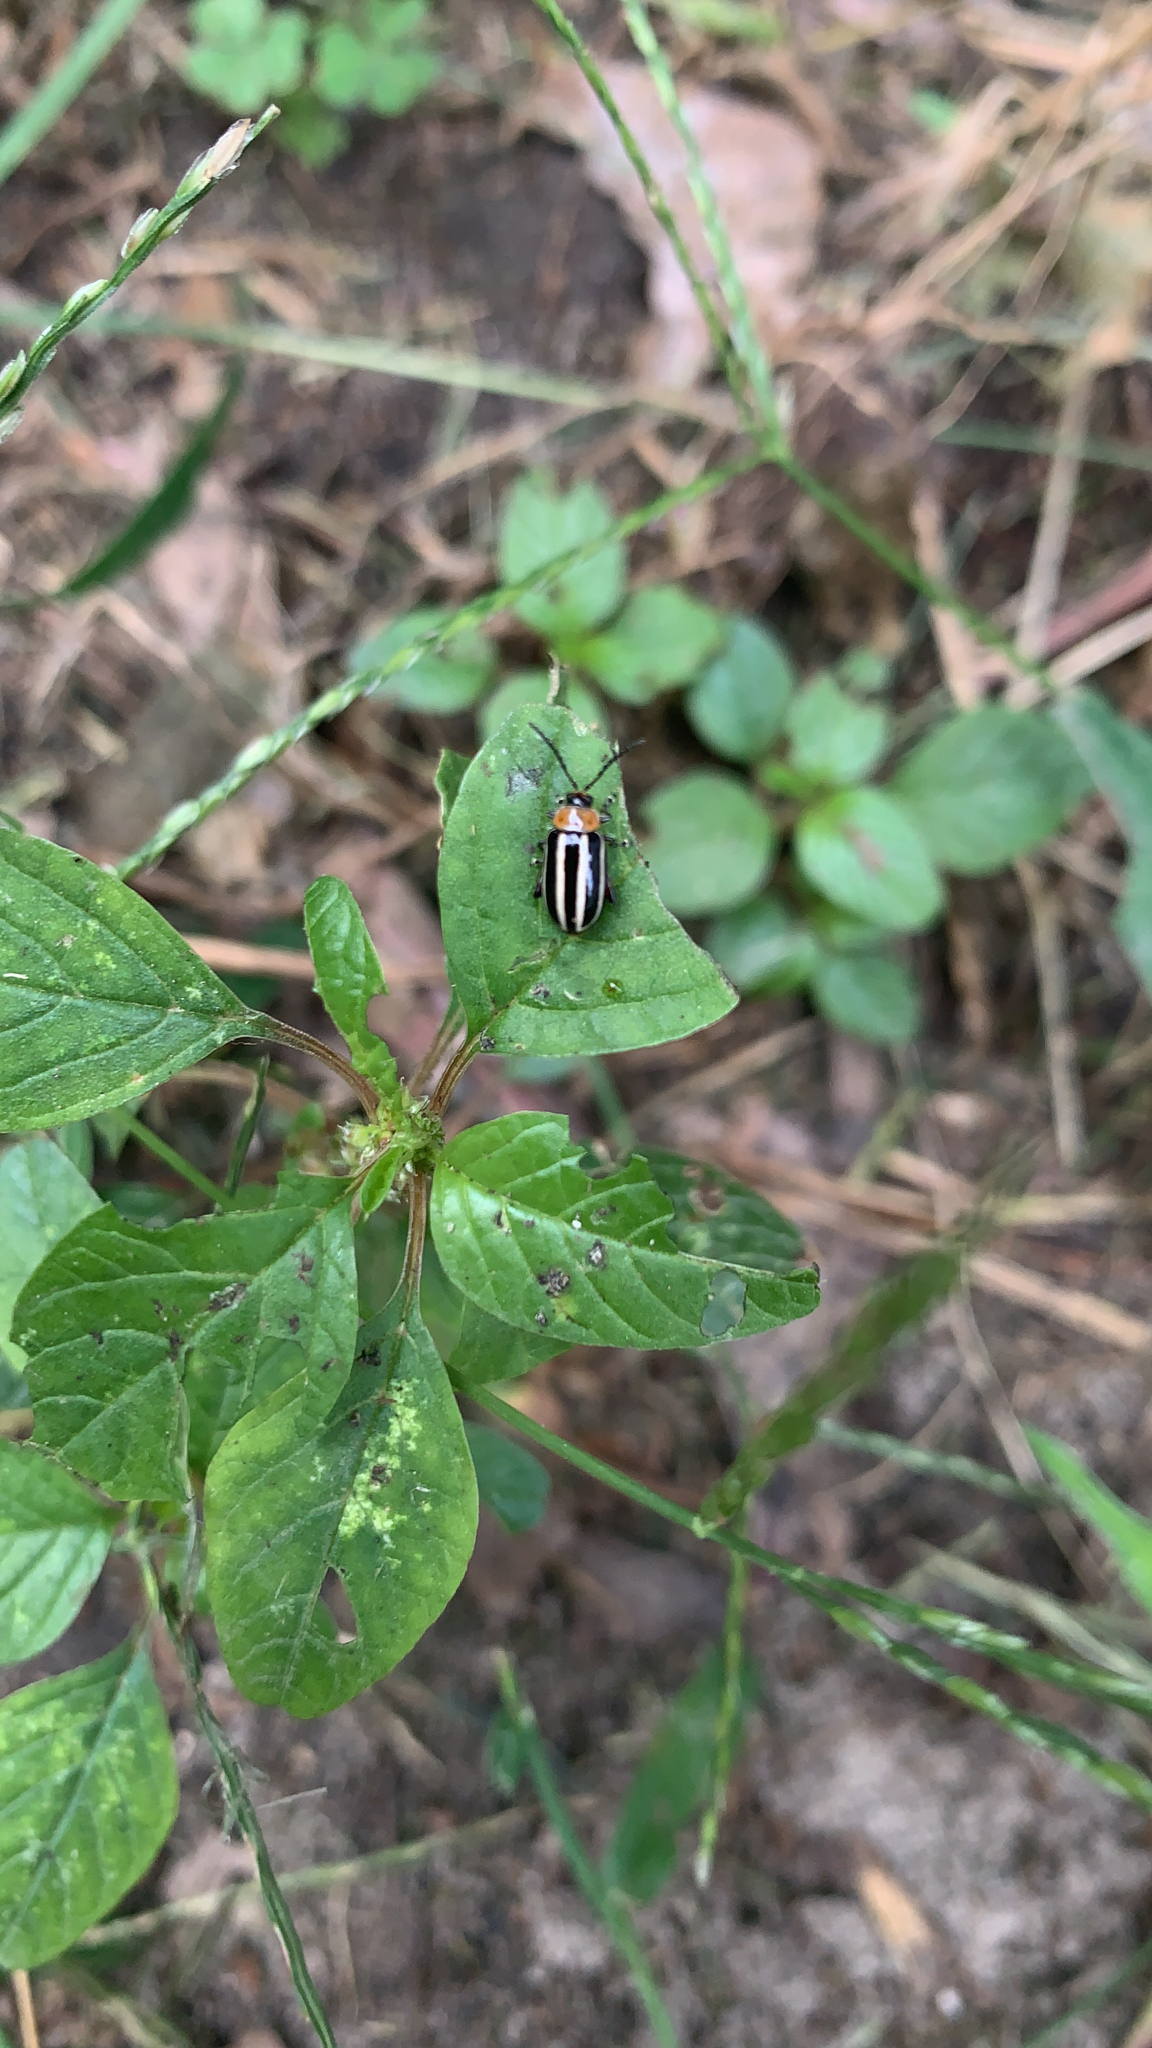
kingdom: Animalia
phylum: Arthropoda
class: Insecta
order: Coleoptera
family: Chrysomelidae
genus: Disonycha
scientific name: Disonycha glabrata
